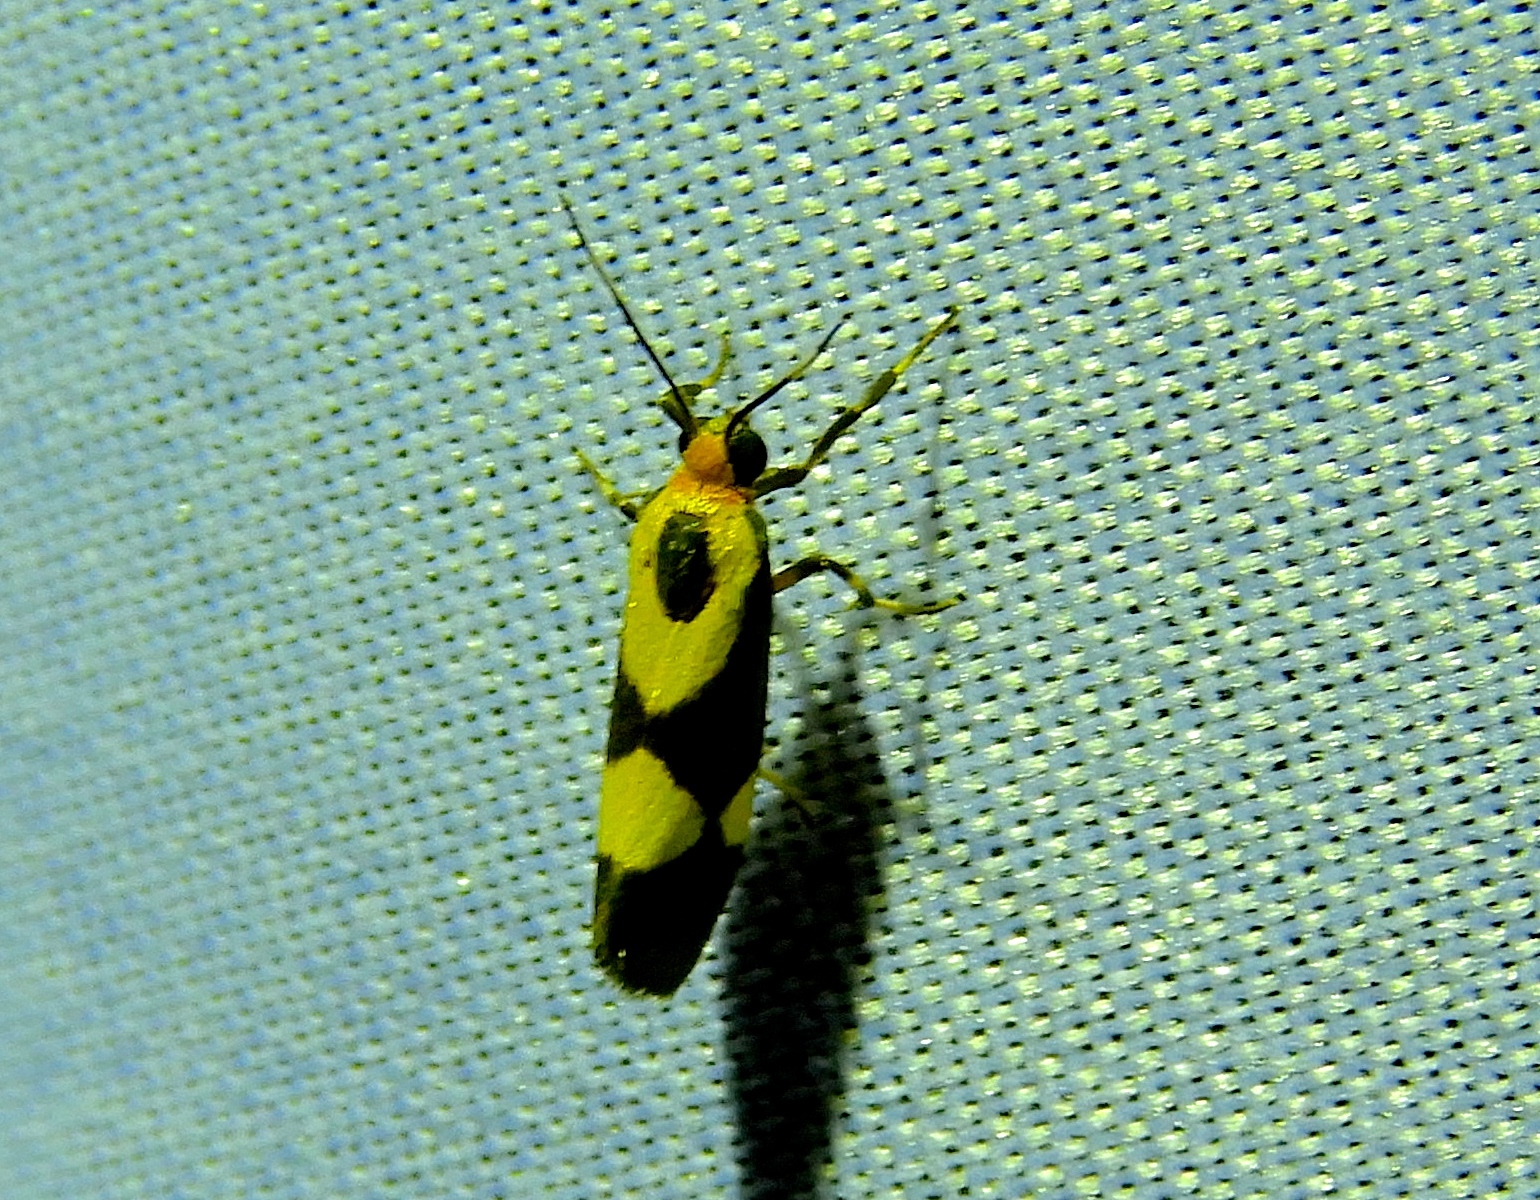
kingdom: Animalia
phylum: Arthropoda
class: Insecta
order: Lepidoptera
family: Erebidae
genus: Cisthene
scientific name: Cisthene
